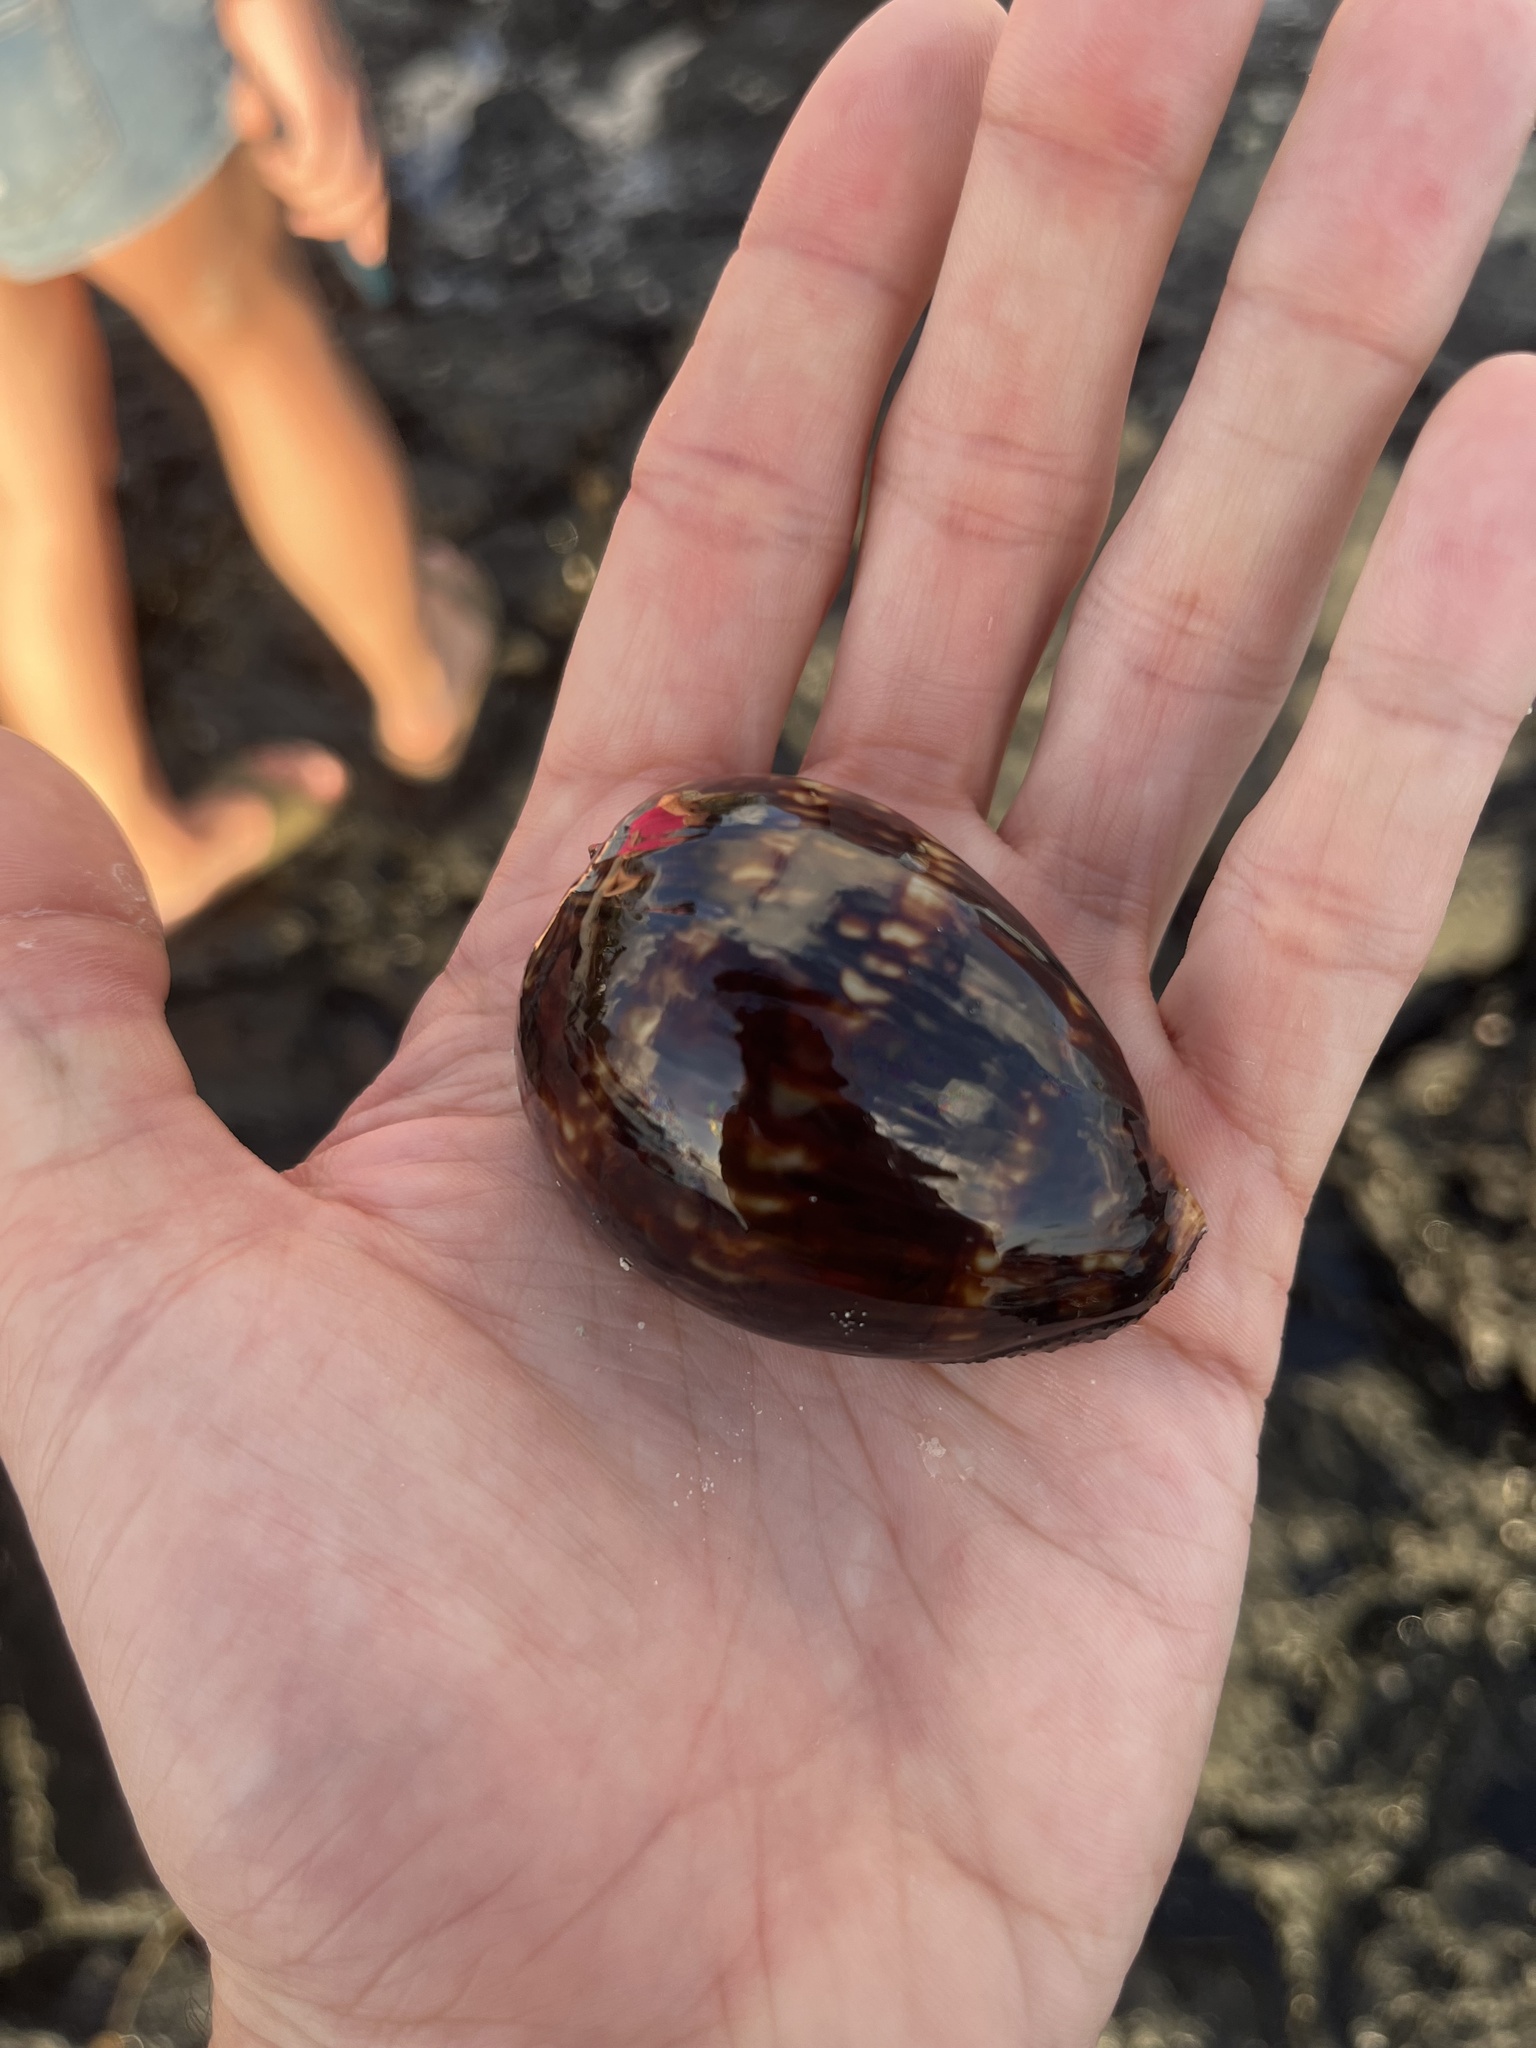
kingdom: Animalia
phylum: Mollusca
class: Gastropoda
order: Littorinimorpha
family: Cypraeidae
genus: Mauritia
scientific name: Mauritia mauritiana
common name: Hump-backed cowrie
